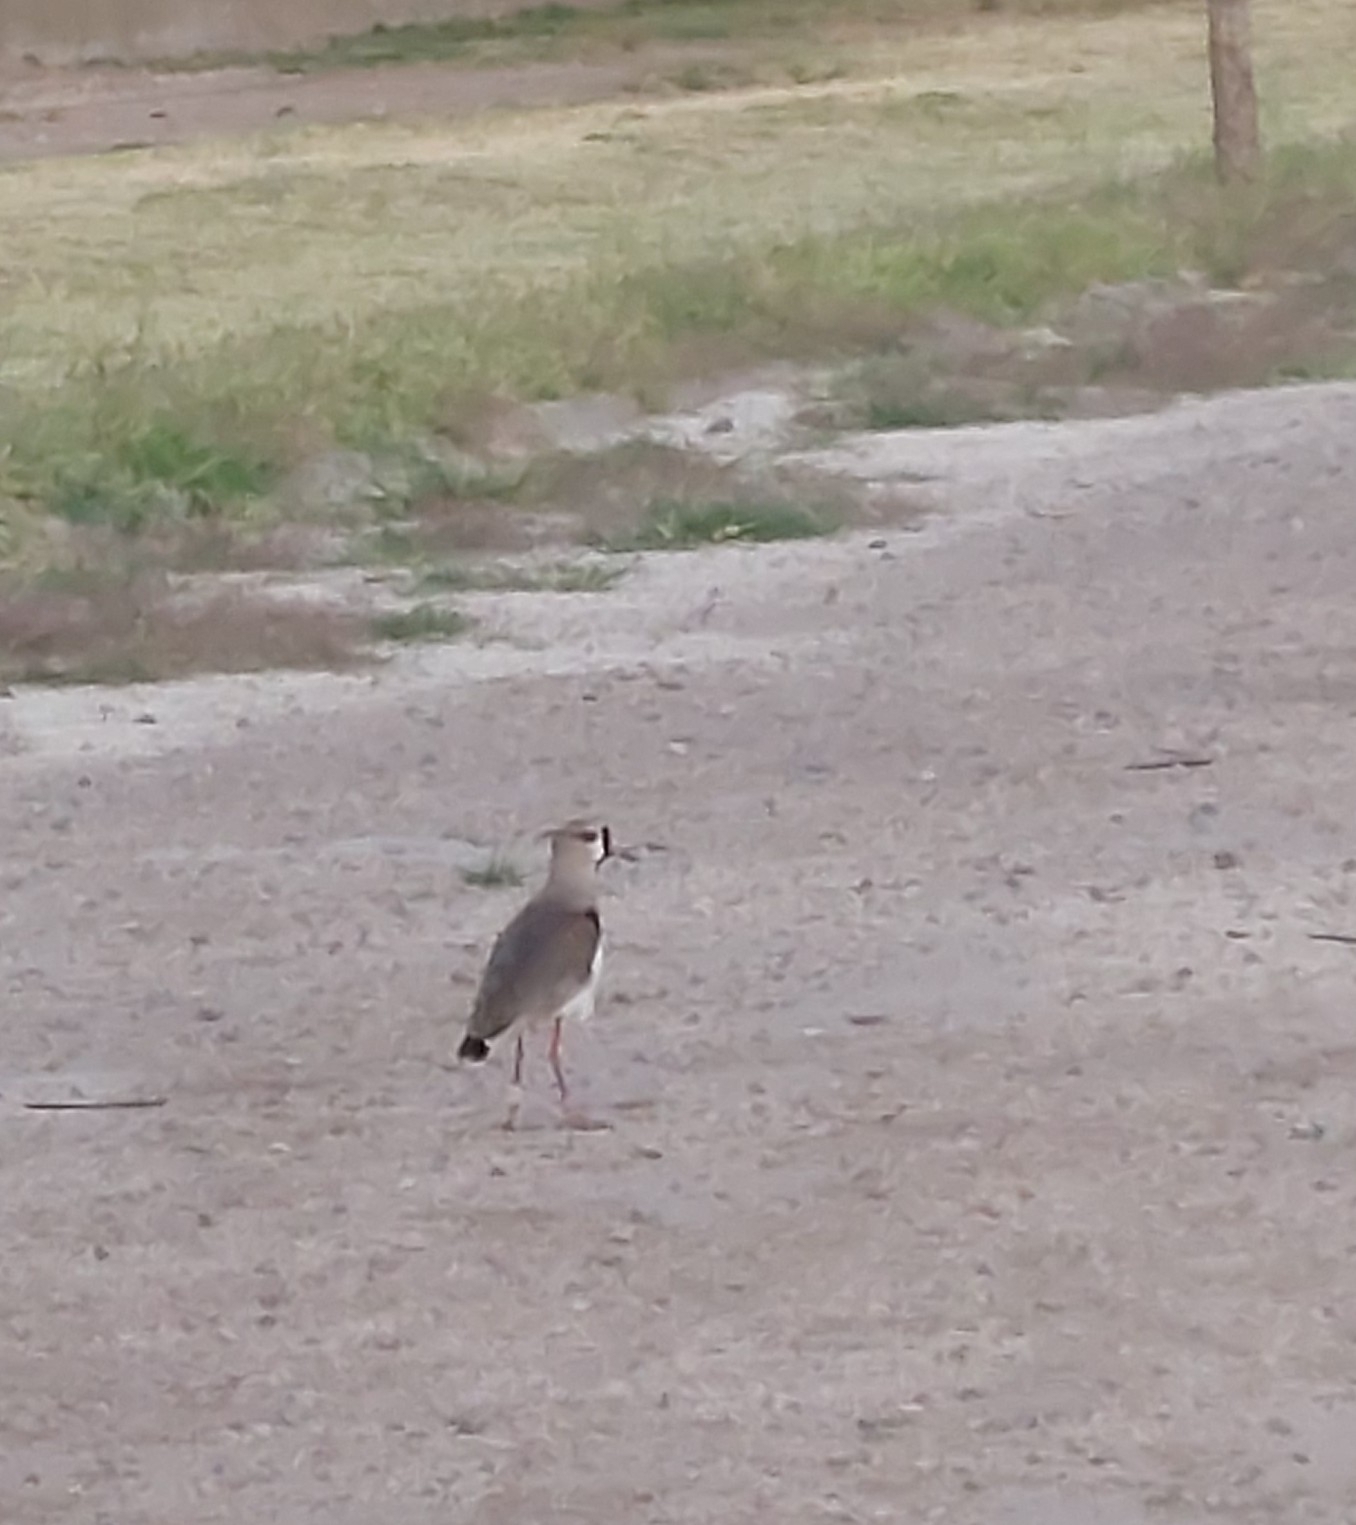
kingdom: Animalia
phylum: Chordata
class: Aves
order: Charadriiformes
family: Charadriidae
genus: Vanellus
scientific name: Vanellus chilensis
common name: Southern lapwing
